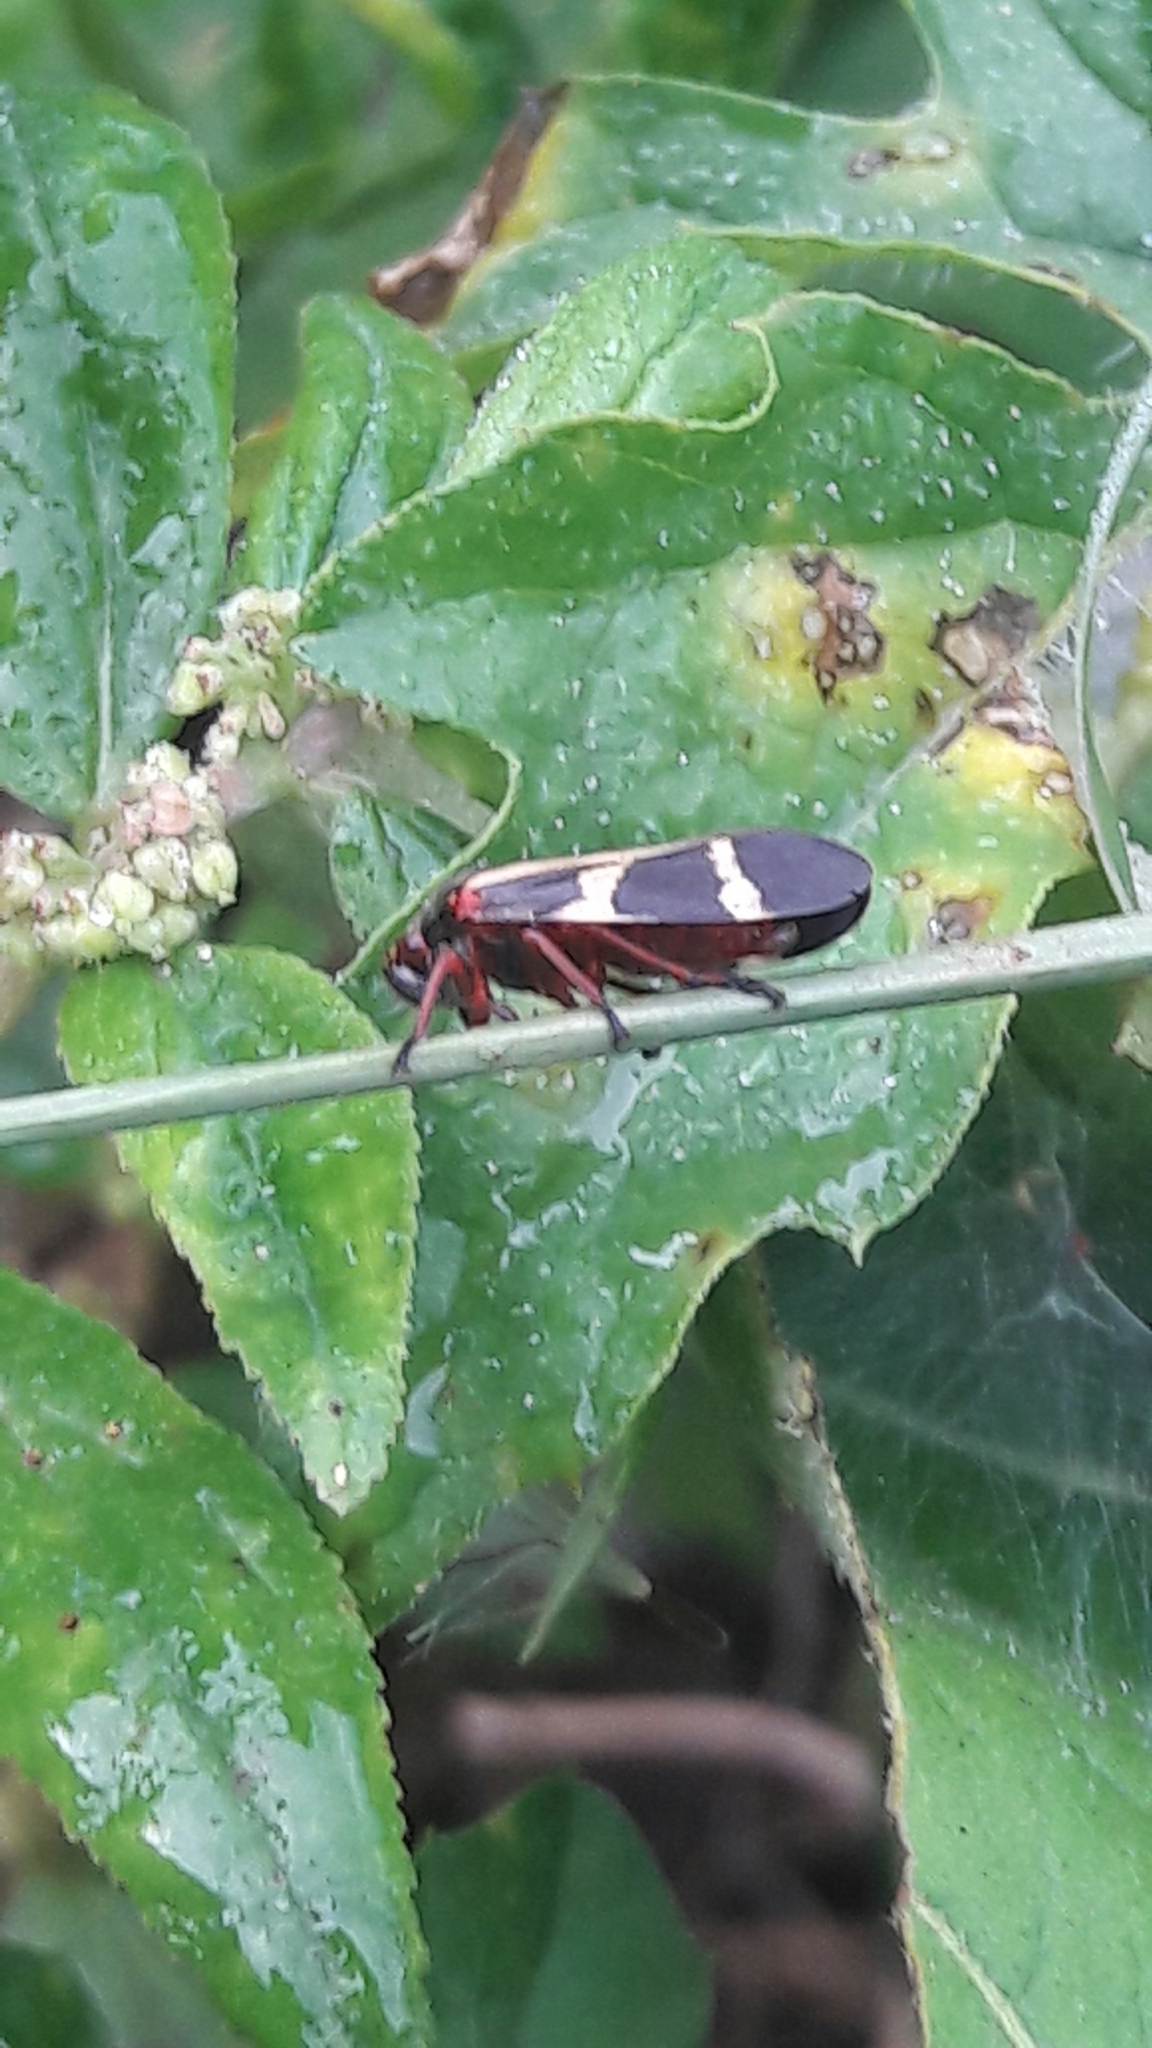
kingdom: Animalia
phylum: Arthropoda
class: Insecta
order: Hemiptera
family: Cercopidae
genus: Deois
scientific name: Deois flavopicta
